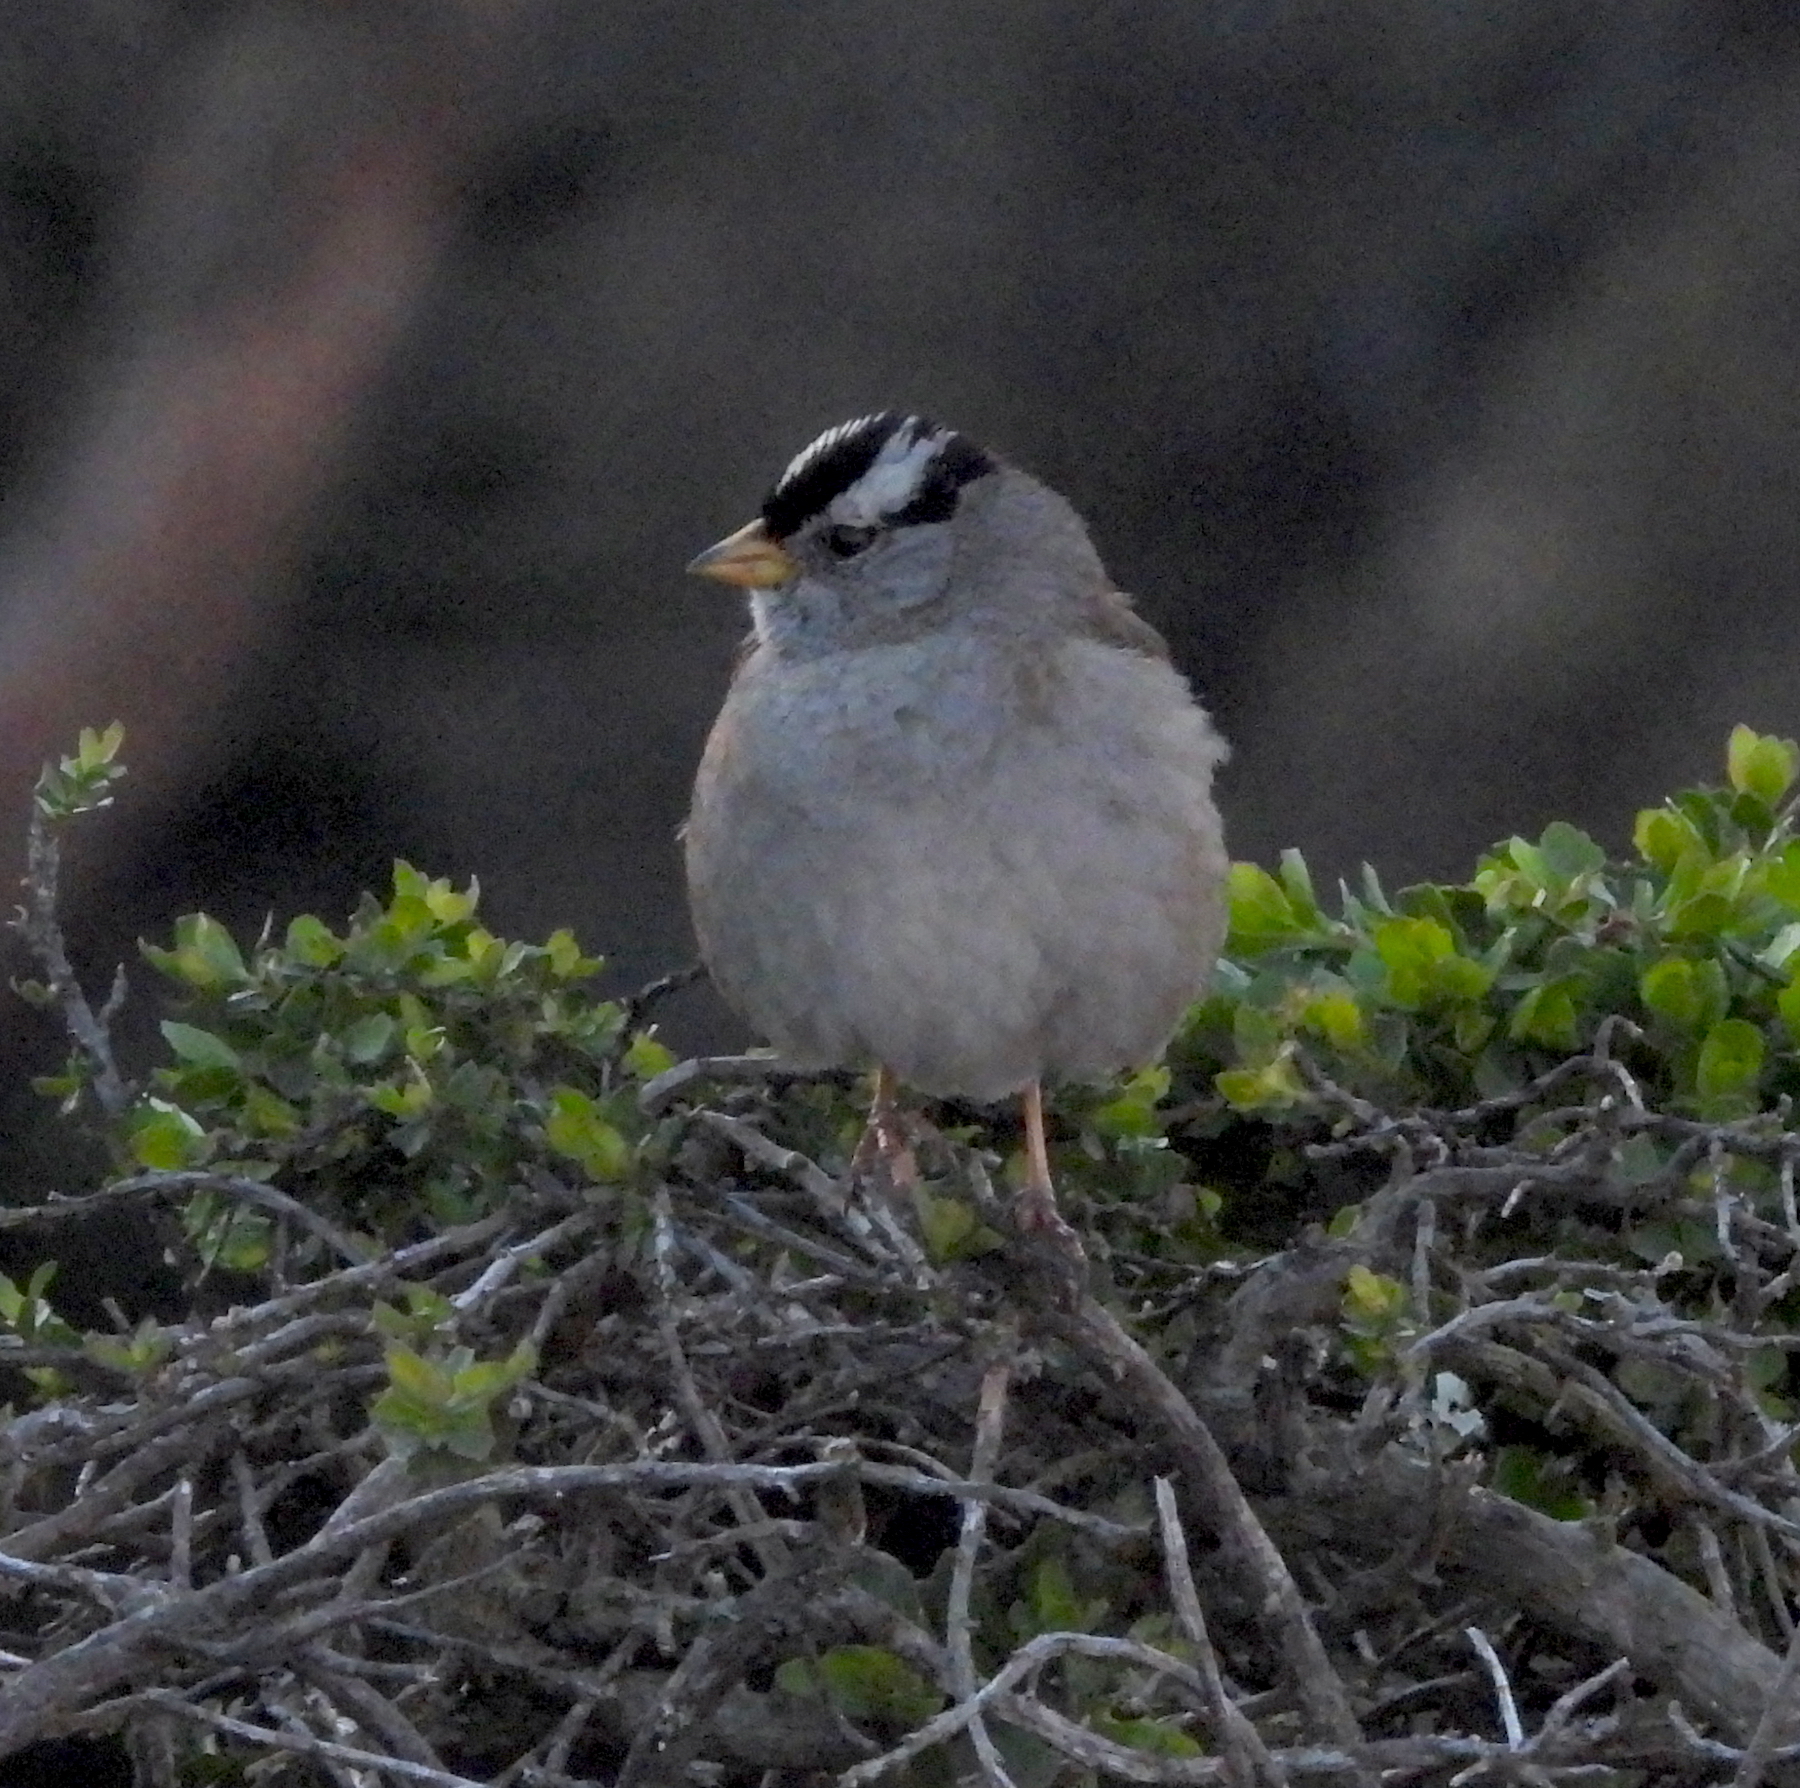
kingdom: Animalia
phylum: Chordata
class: Aves
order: Passeriformes
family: Passerellidae
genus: Zonotrichia
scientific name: Zonotrichia leucophrys
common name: White-crowned sparrow
